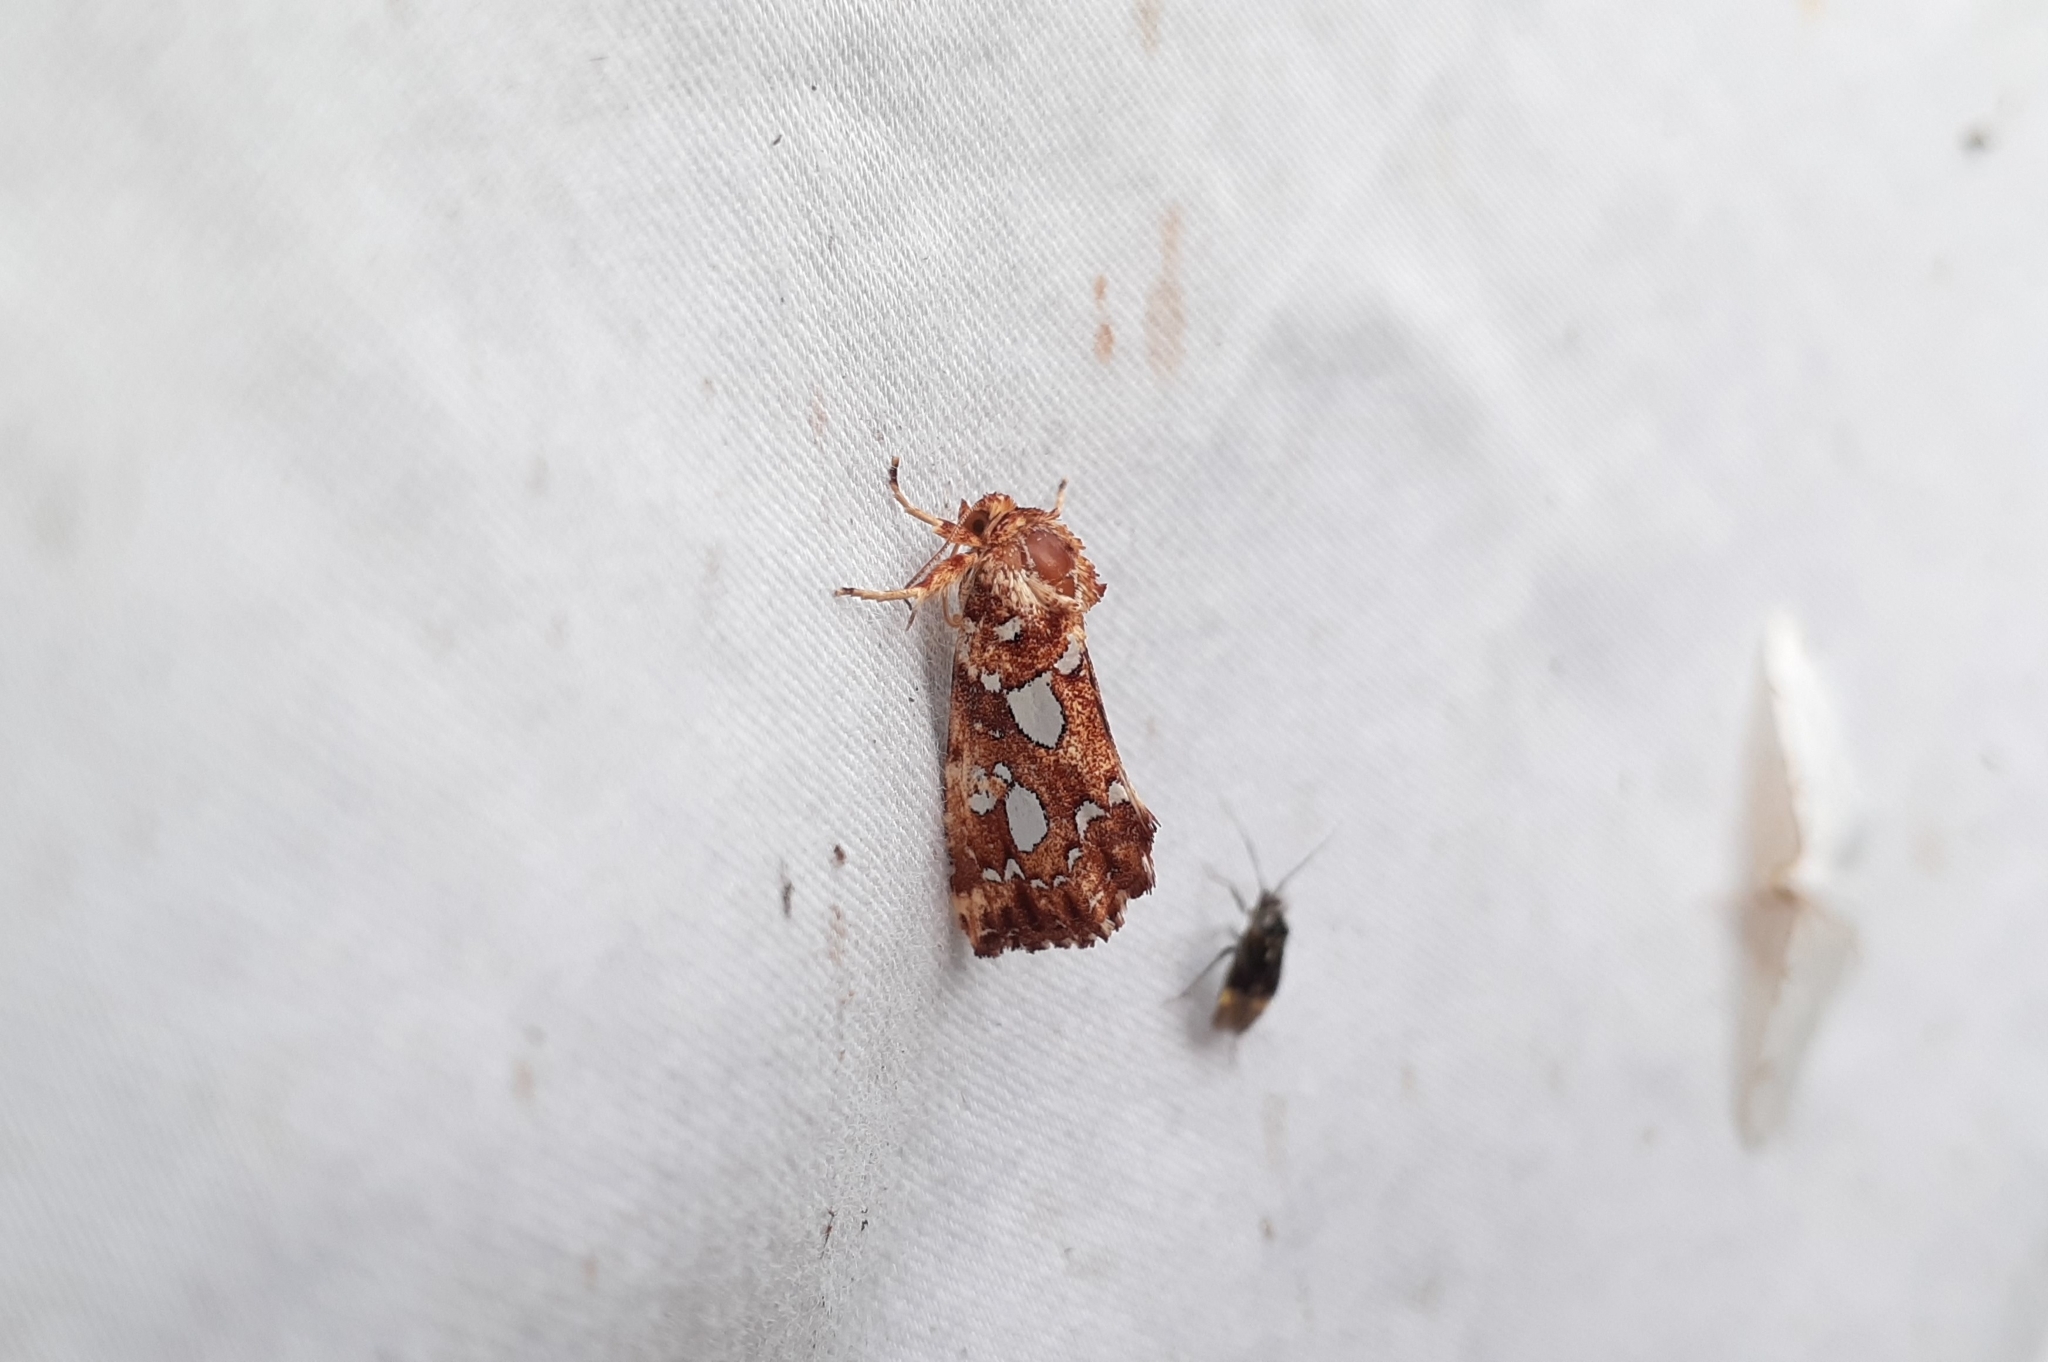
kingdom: Animalia
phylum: Arthropoda
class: Insecta
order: Lepidoptera
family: Noctuidae
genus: Callopistria
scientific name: Callopistria cordata
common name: Silver-spotted fern moth
